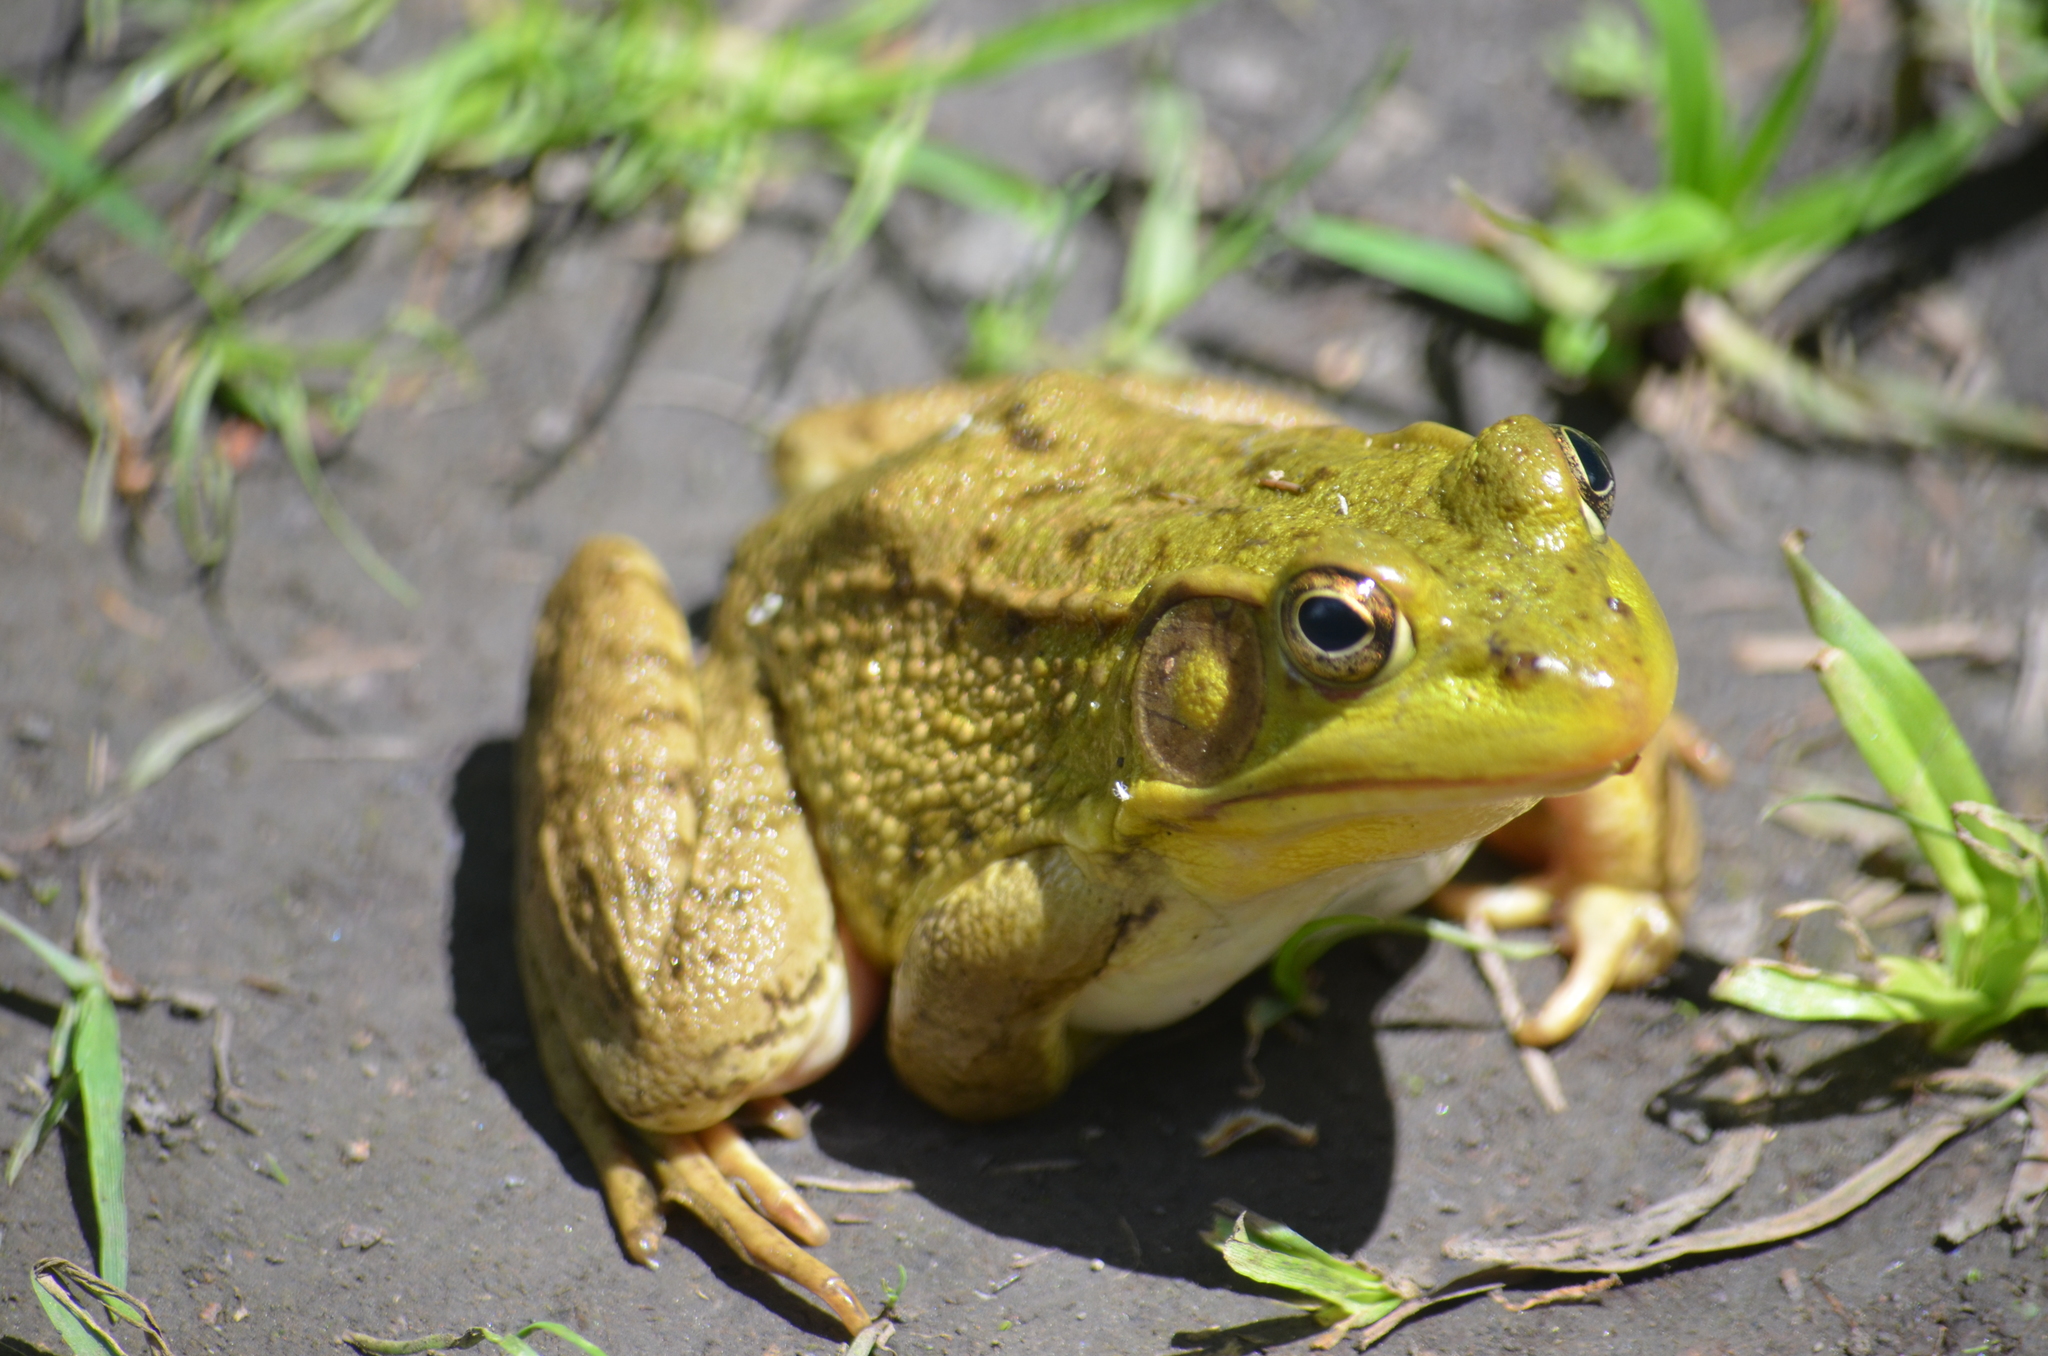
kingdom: Animalia
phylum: Chordata
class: Amphibia
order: Anura
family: Ranidae
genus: Lithobates
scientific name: Lithobates clamitans
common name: Green frog
